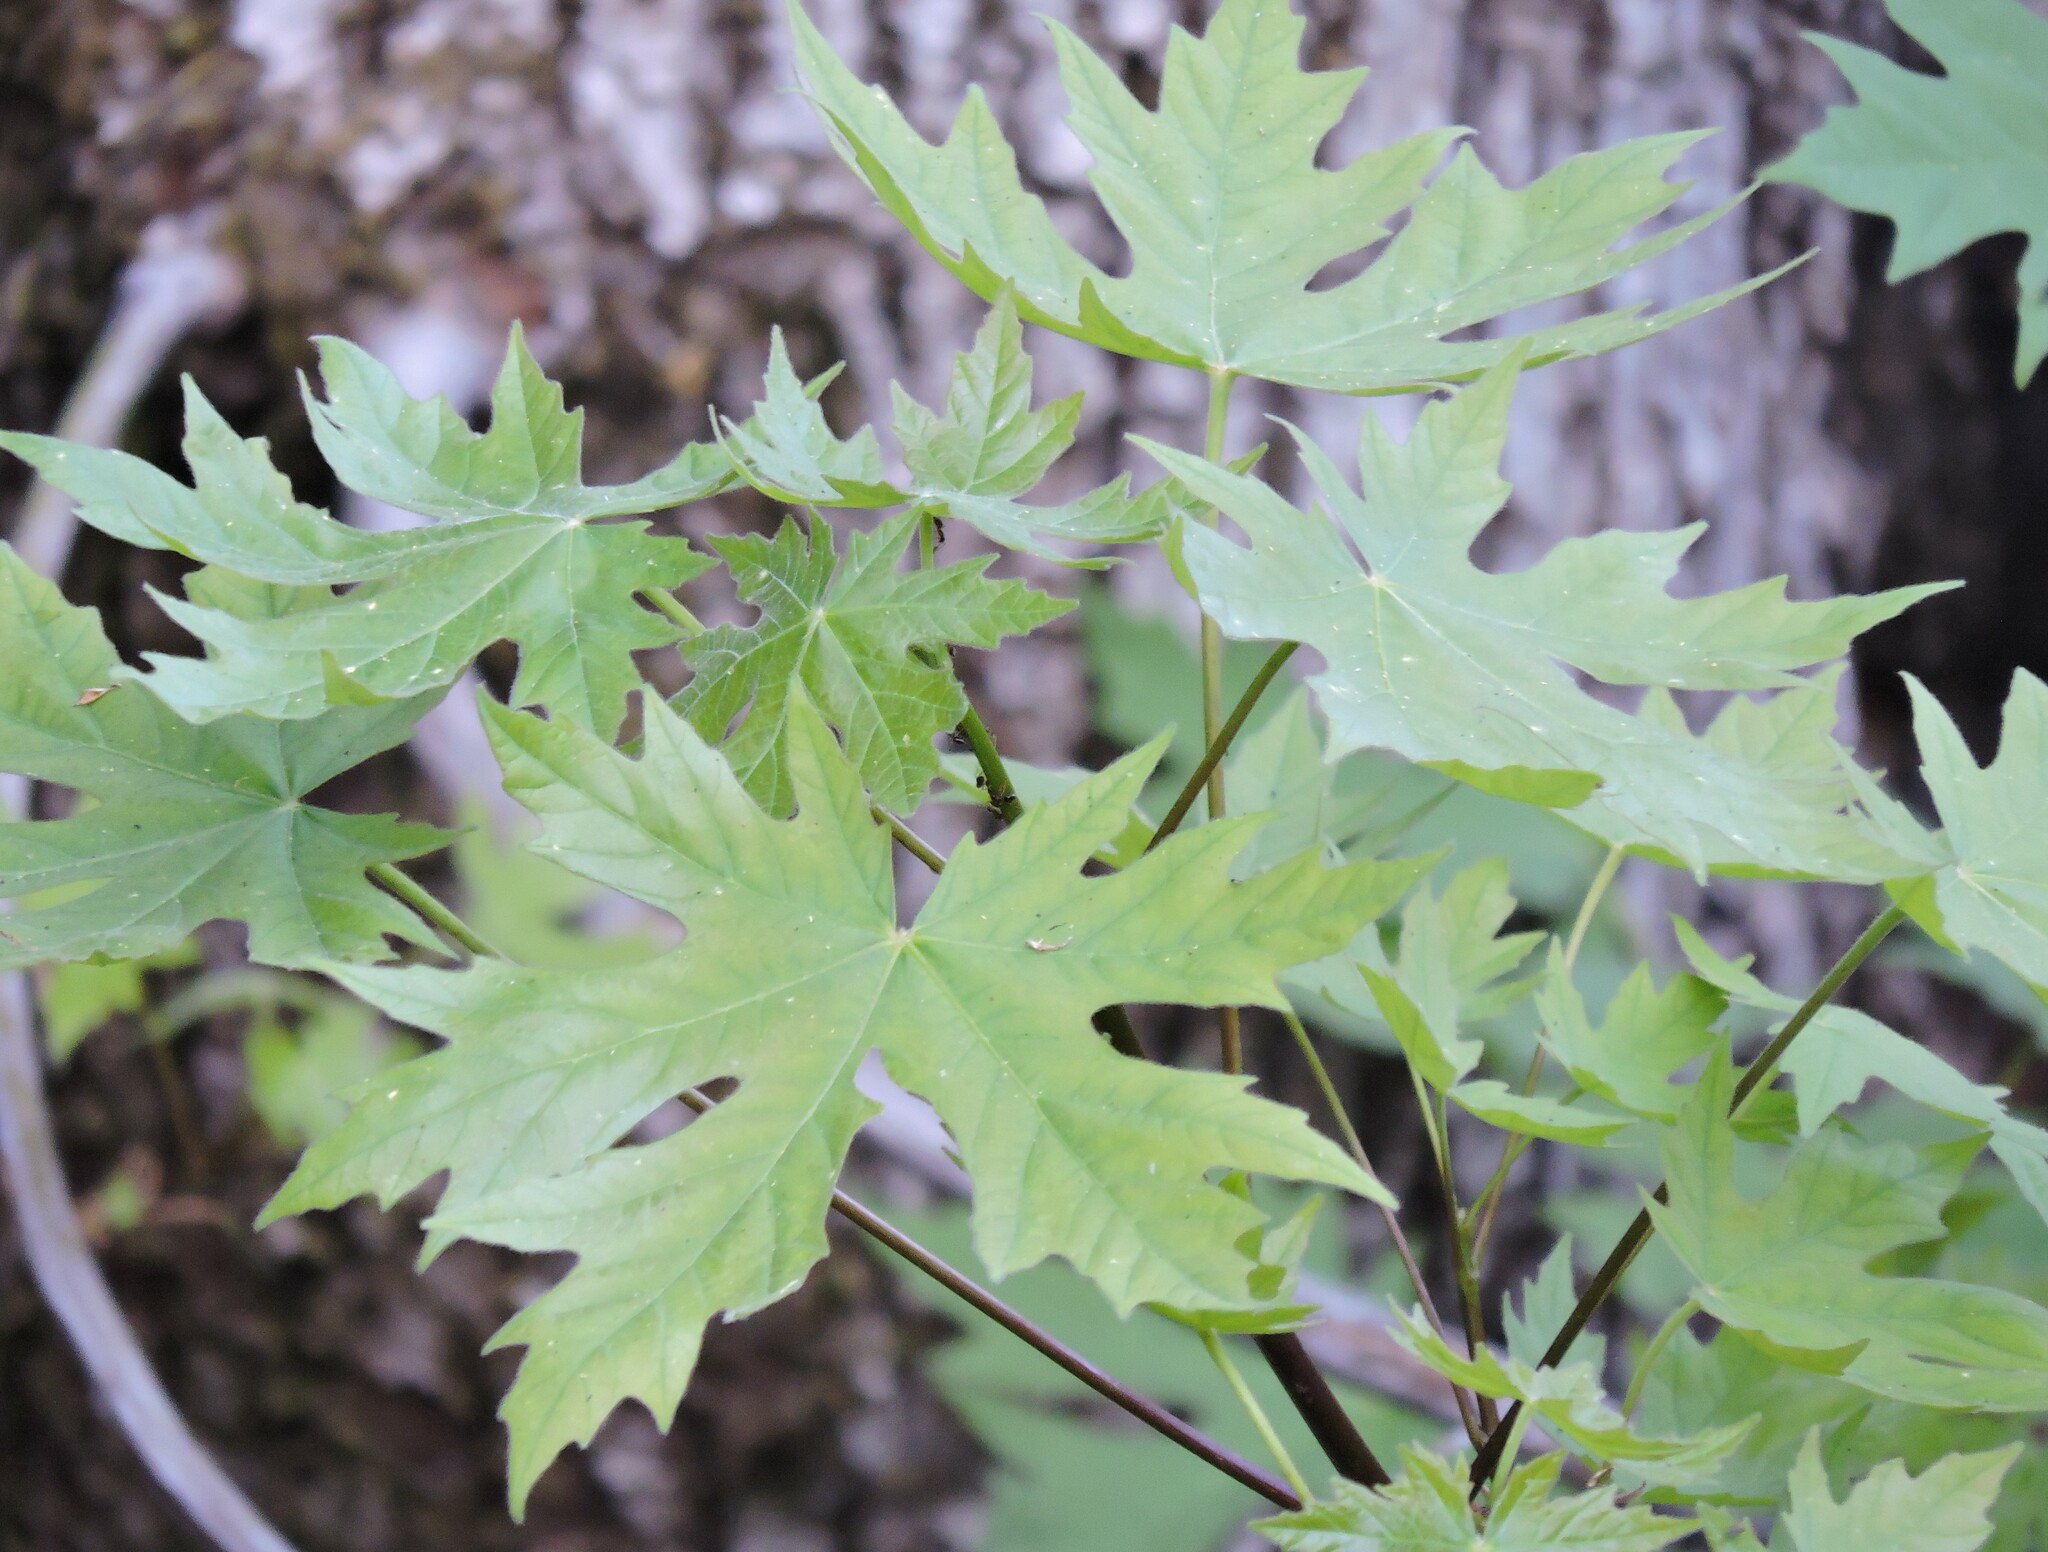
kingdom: Plantae
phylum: Tracheophyta
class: Magnoliopsida
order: Sapindales
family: Sapindaceae
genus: Acer
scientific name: Acer macrophyllum
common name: Oregon maple
